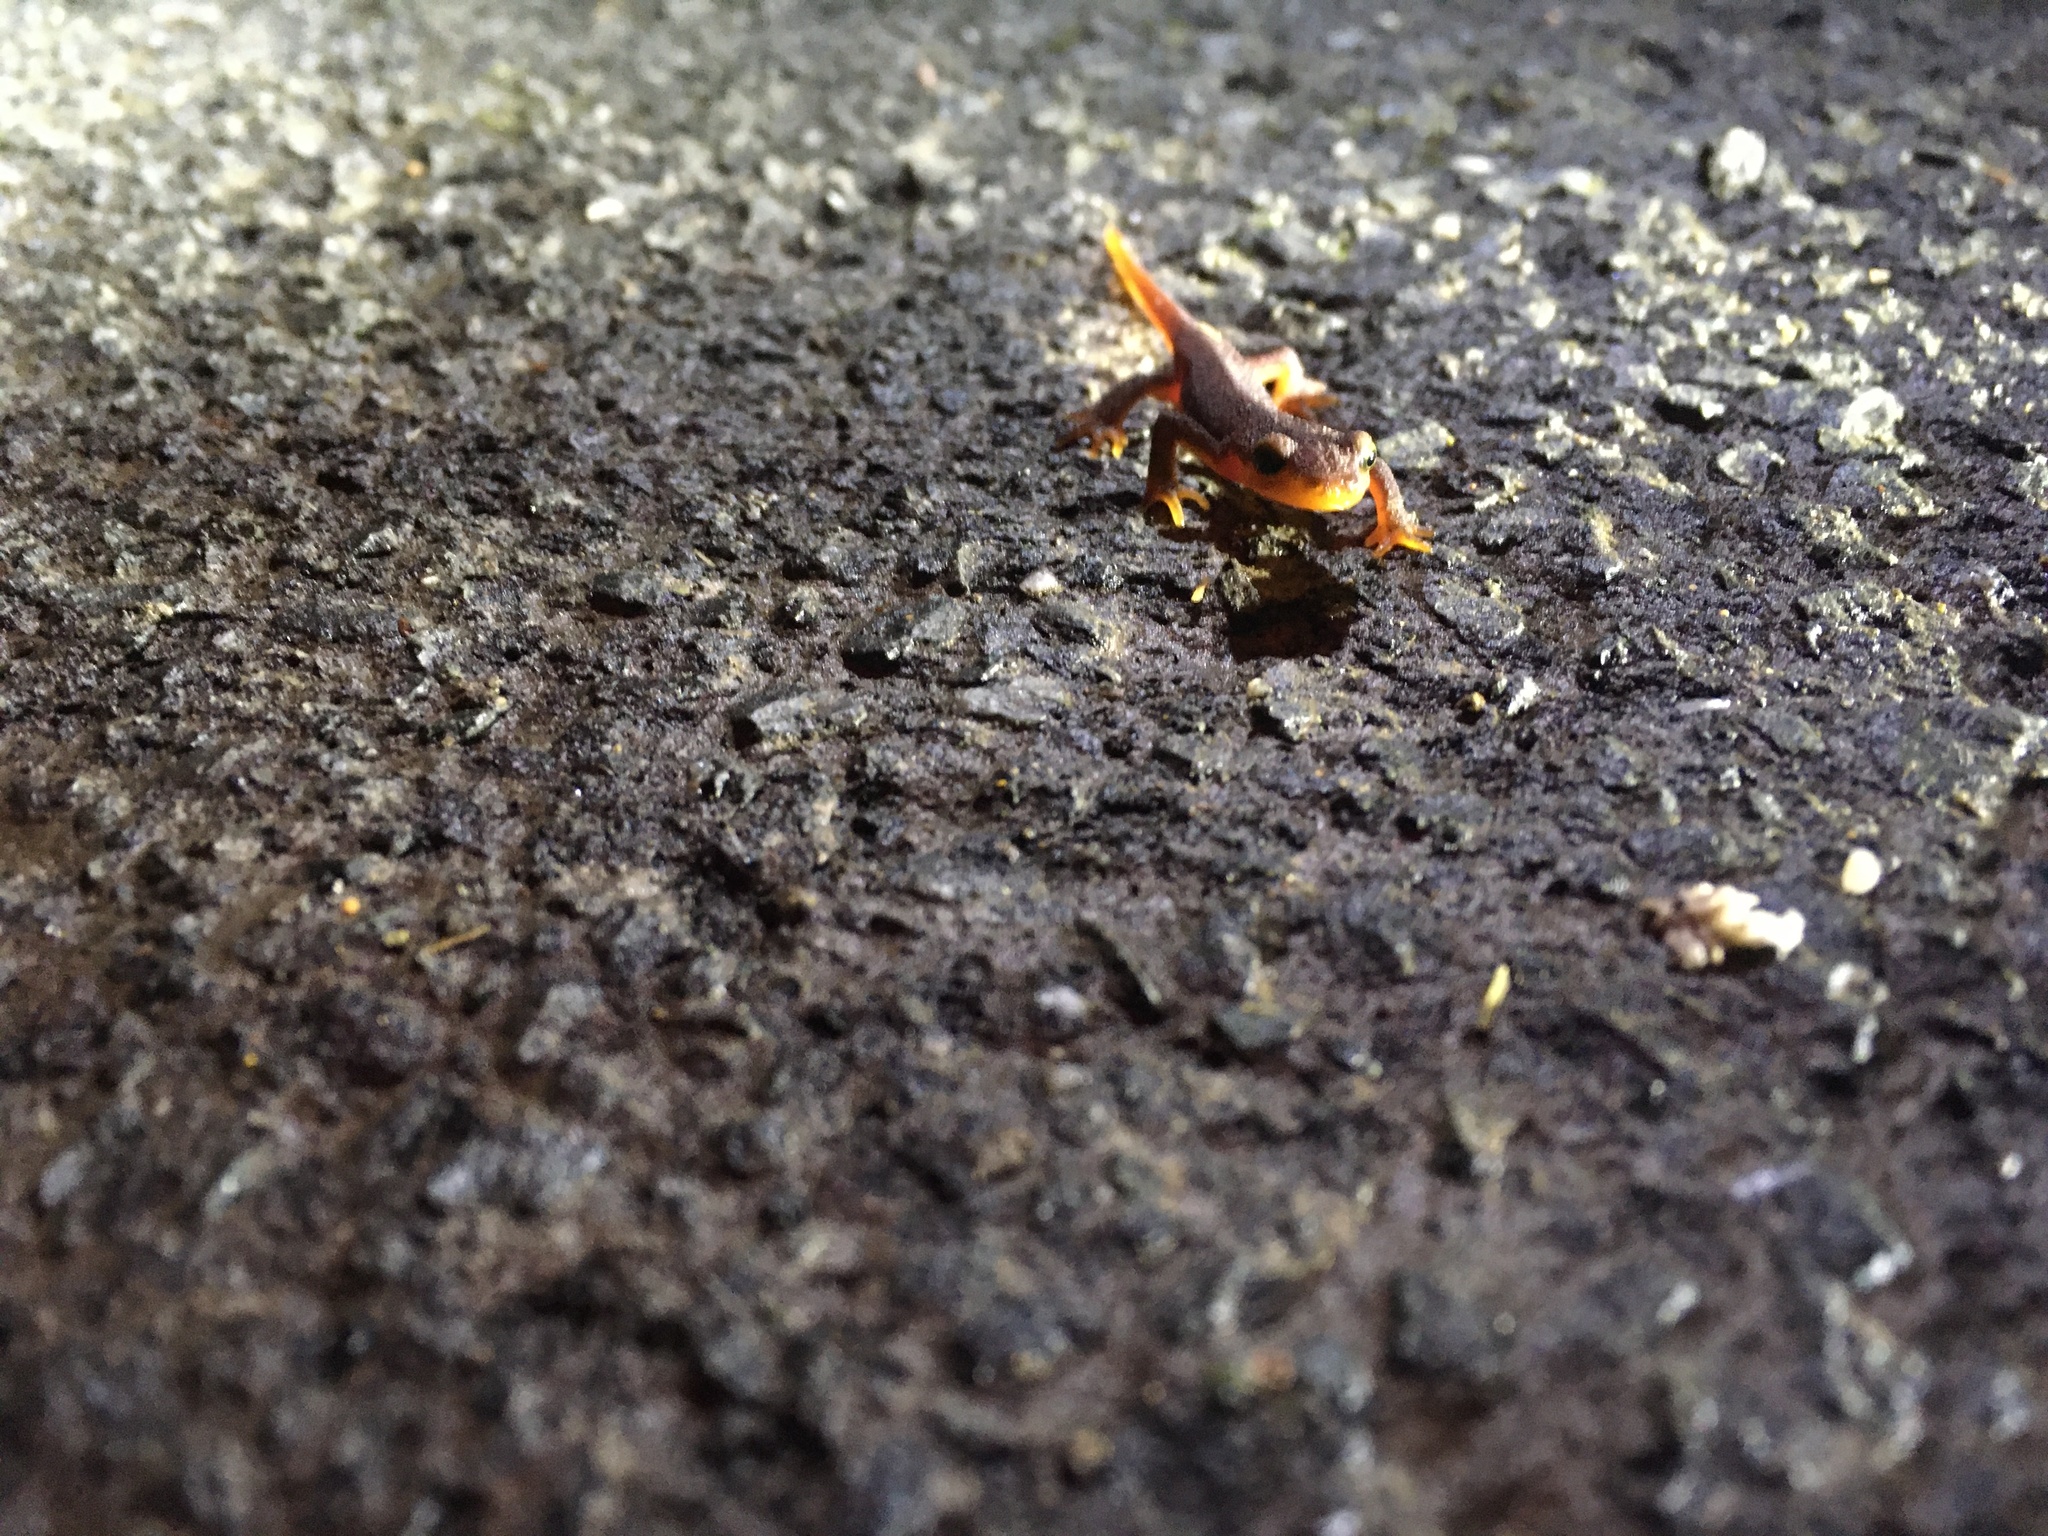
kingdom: Animalia
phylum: Chordata
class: Amphibia
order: Caudata
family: Salamandridae
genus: Taricha
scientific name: Taricha torosa
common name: California newt
